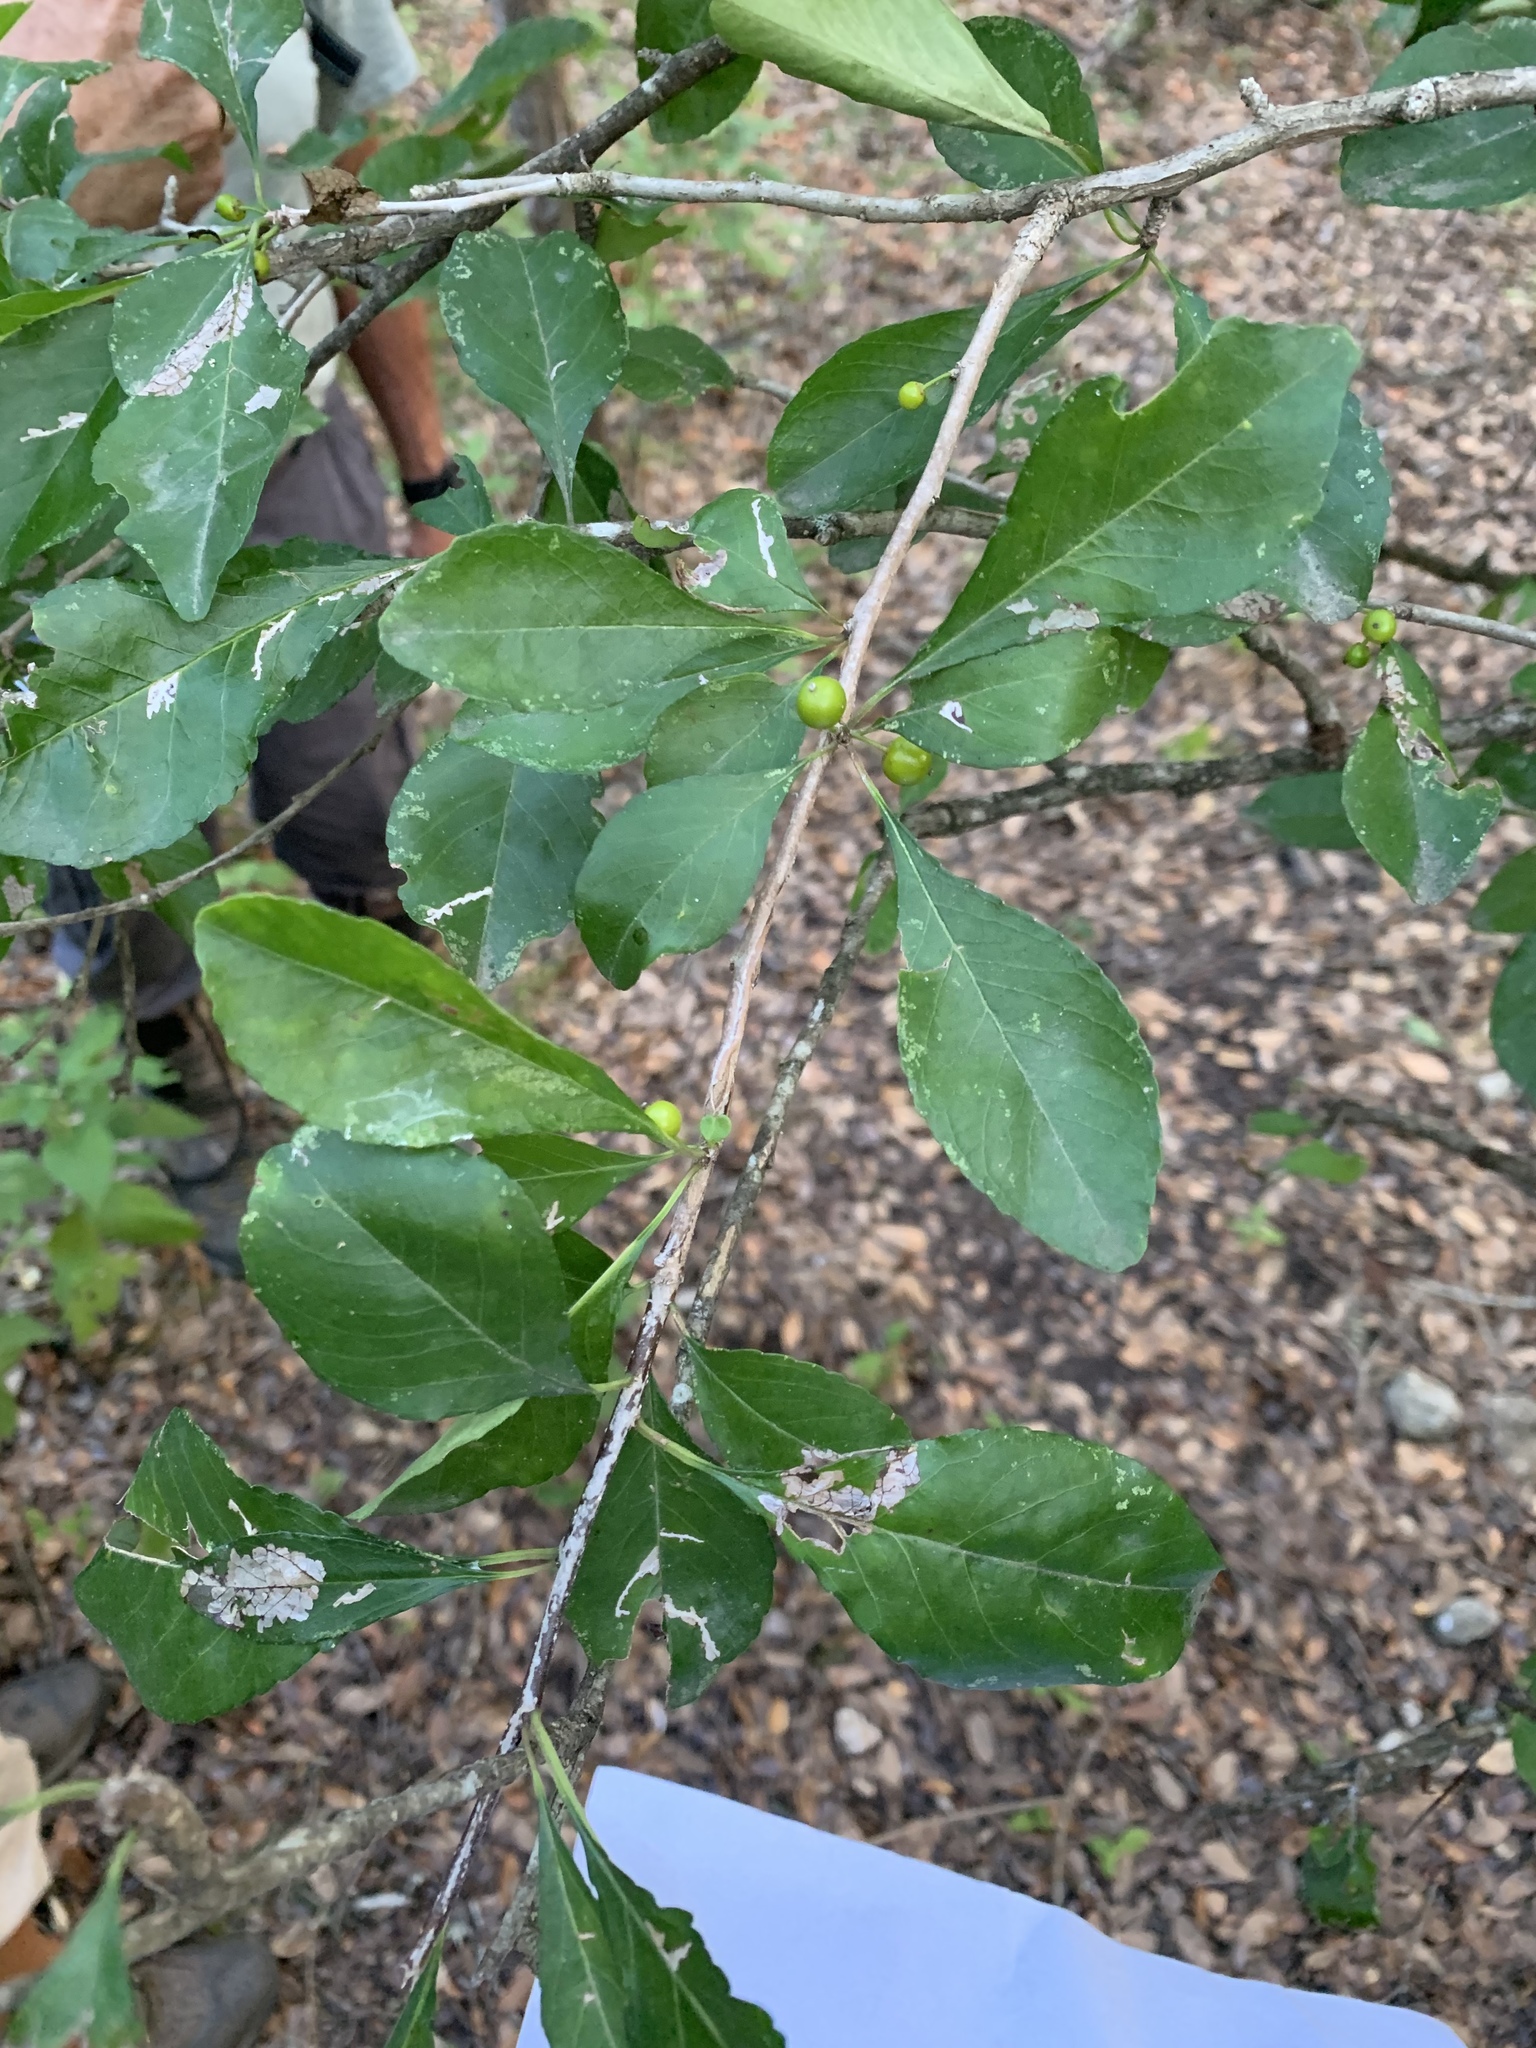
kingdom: Plantae
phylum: Tracheophyta
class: Magnoliopsida
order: Aquifoliales
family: Aquifoliaceae
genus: Ilex
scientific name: Ilex decidua
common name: Possum-haw
